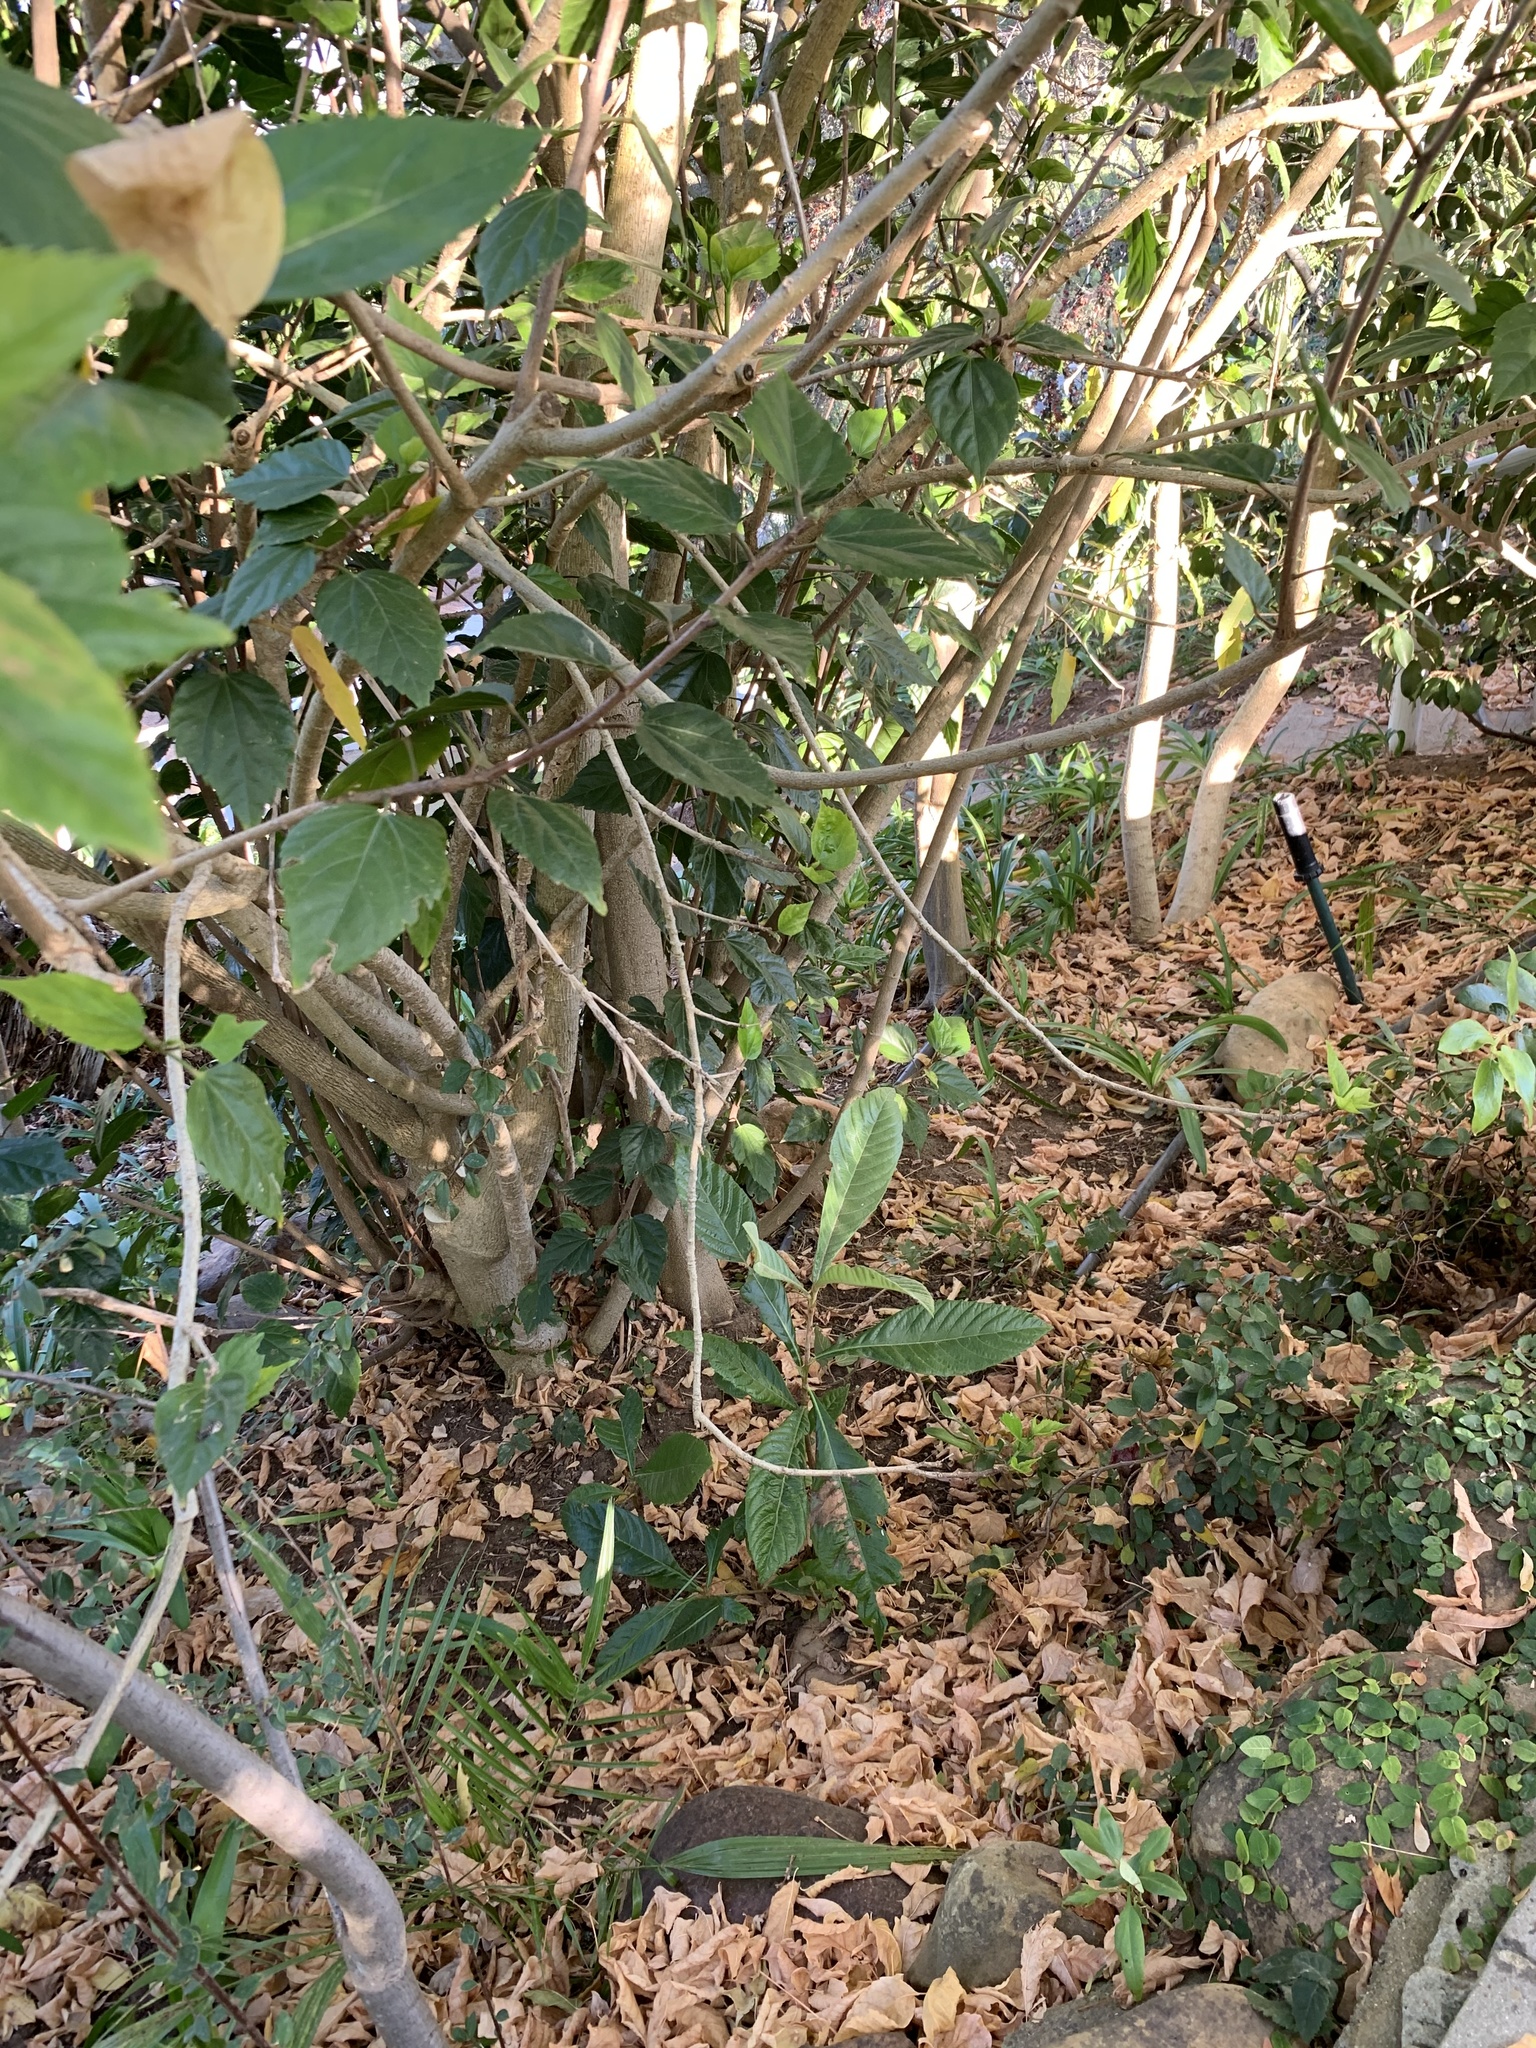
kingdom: Plantae
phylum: Tracheophyta
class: Magnoliopsida
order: Rosales
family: Rosaceae
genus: Rhaphiolepis
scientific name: Rhaphiolepis bibas
